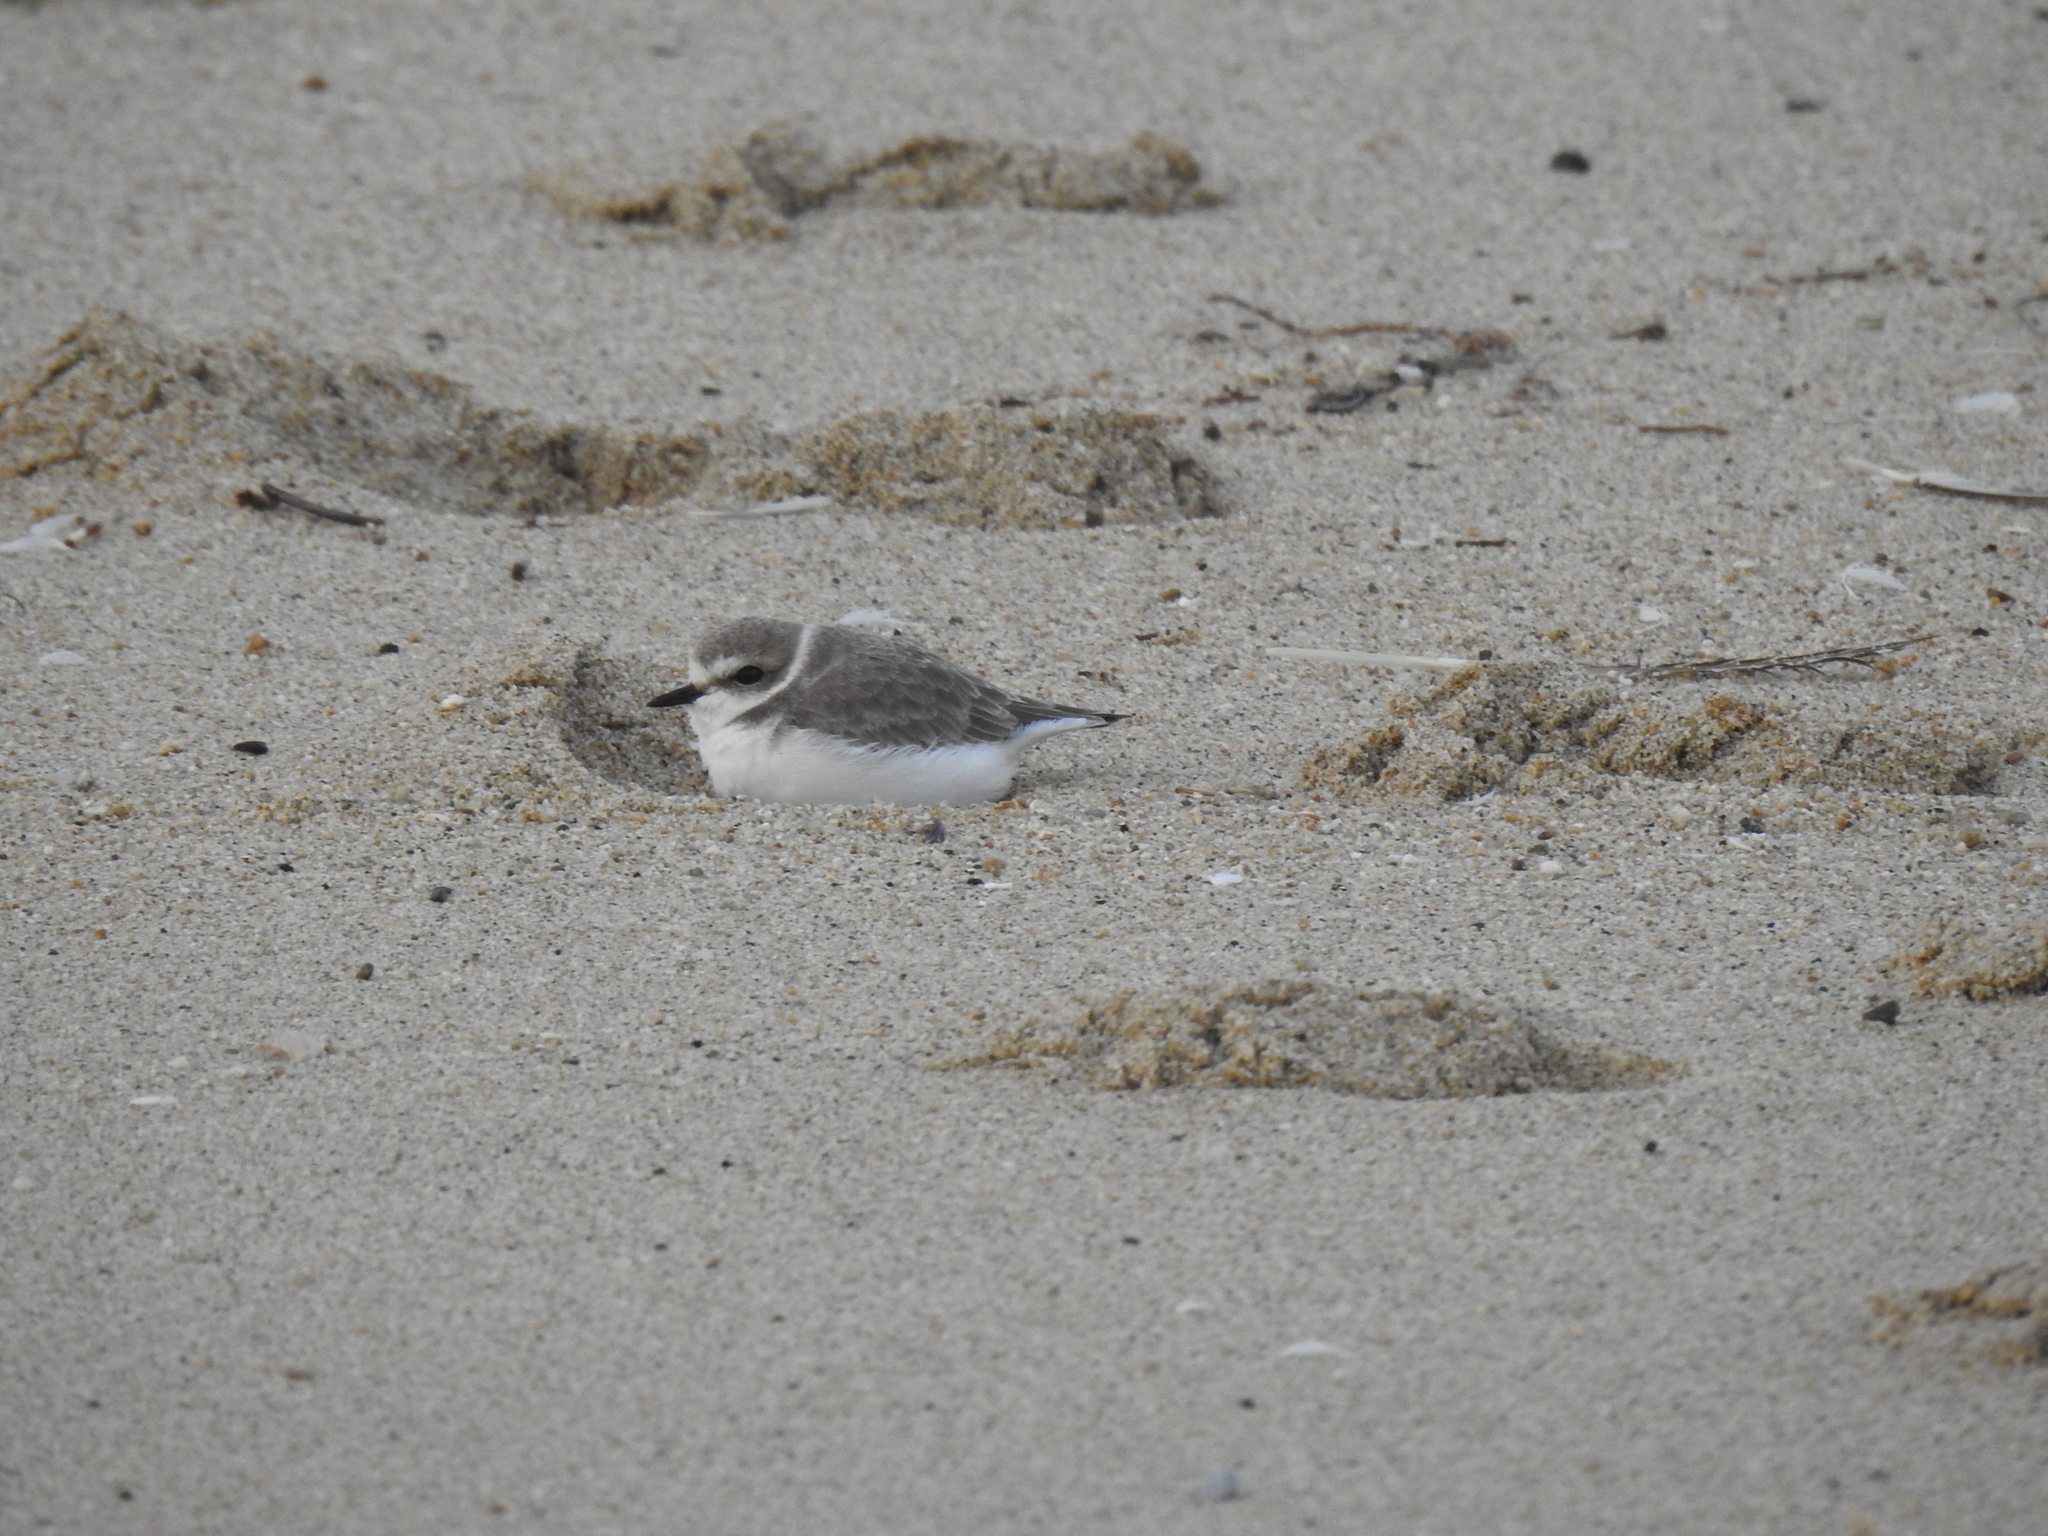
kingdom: Animalia
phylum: Chordata
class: Aves
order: Charadriiformes
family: Charadriidae
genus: Anarhynchus
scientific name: Anarhynchus
